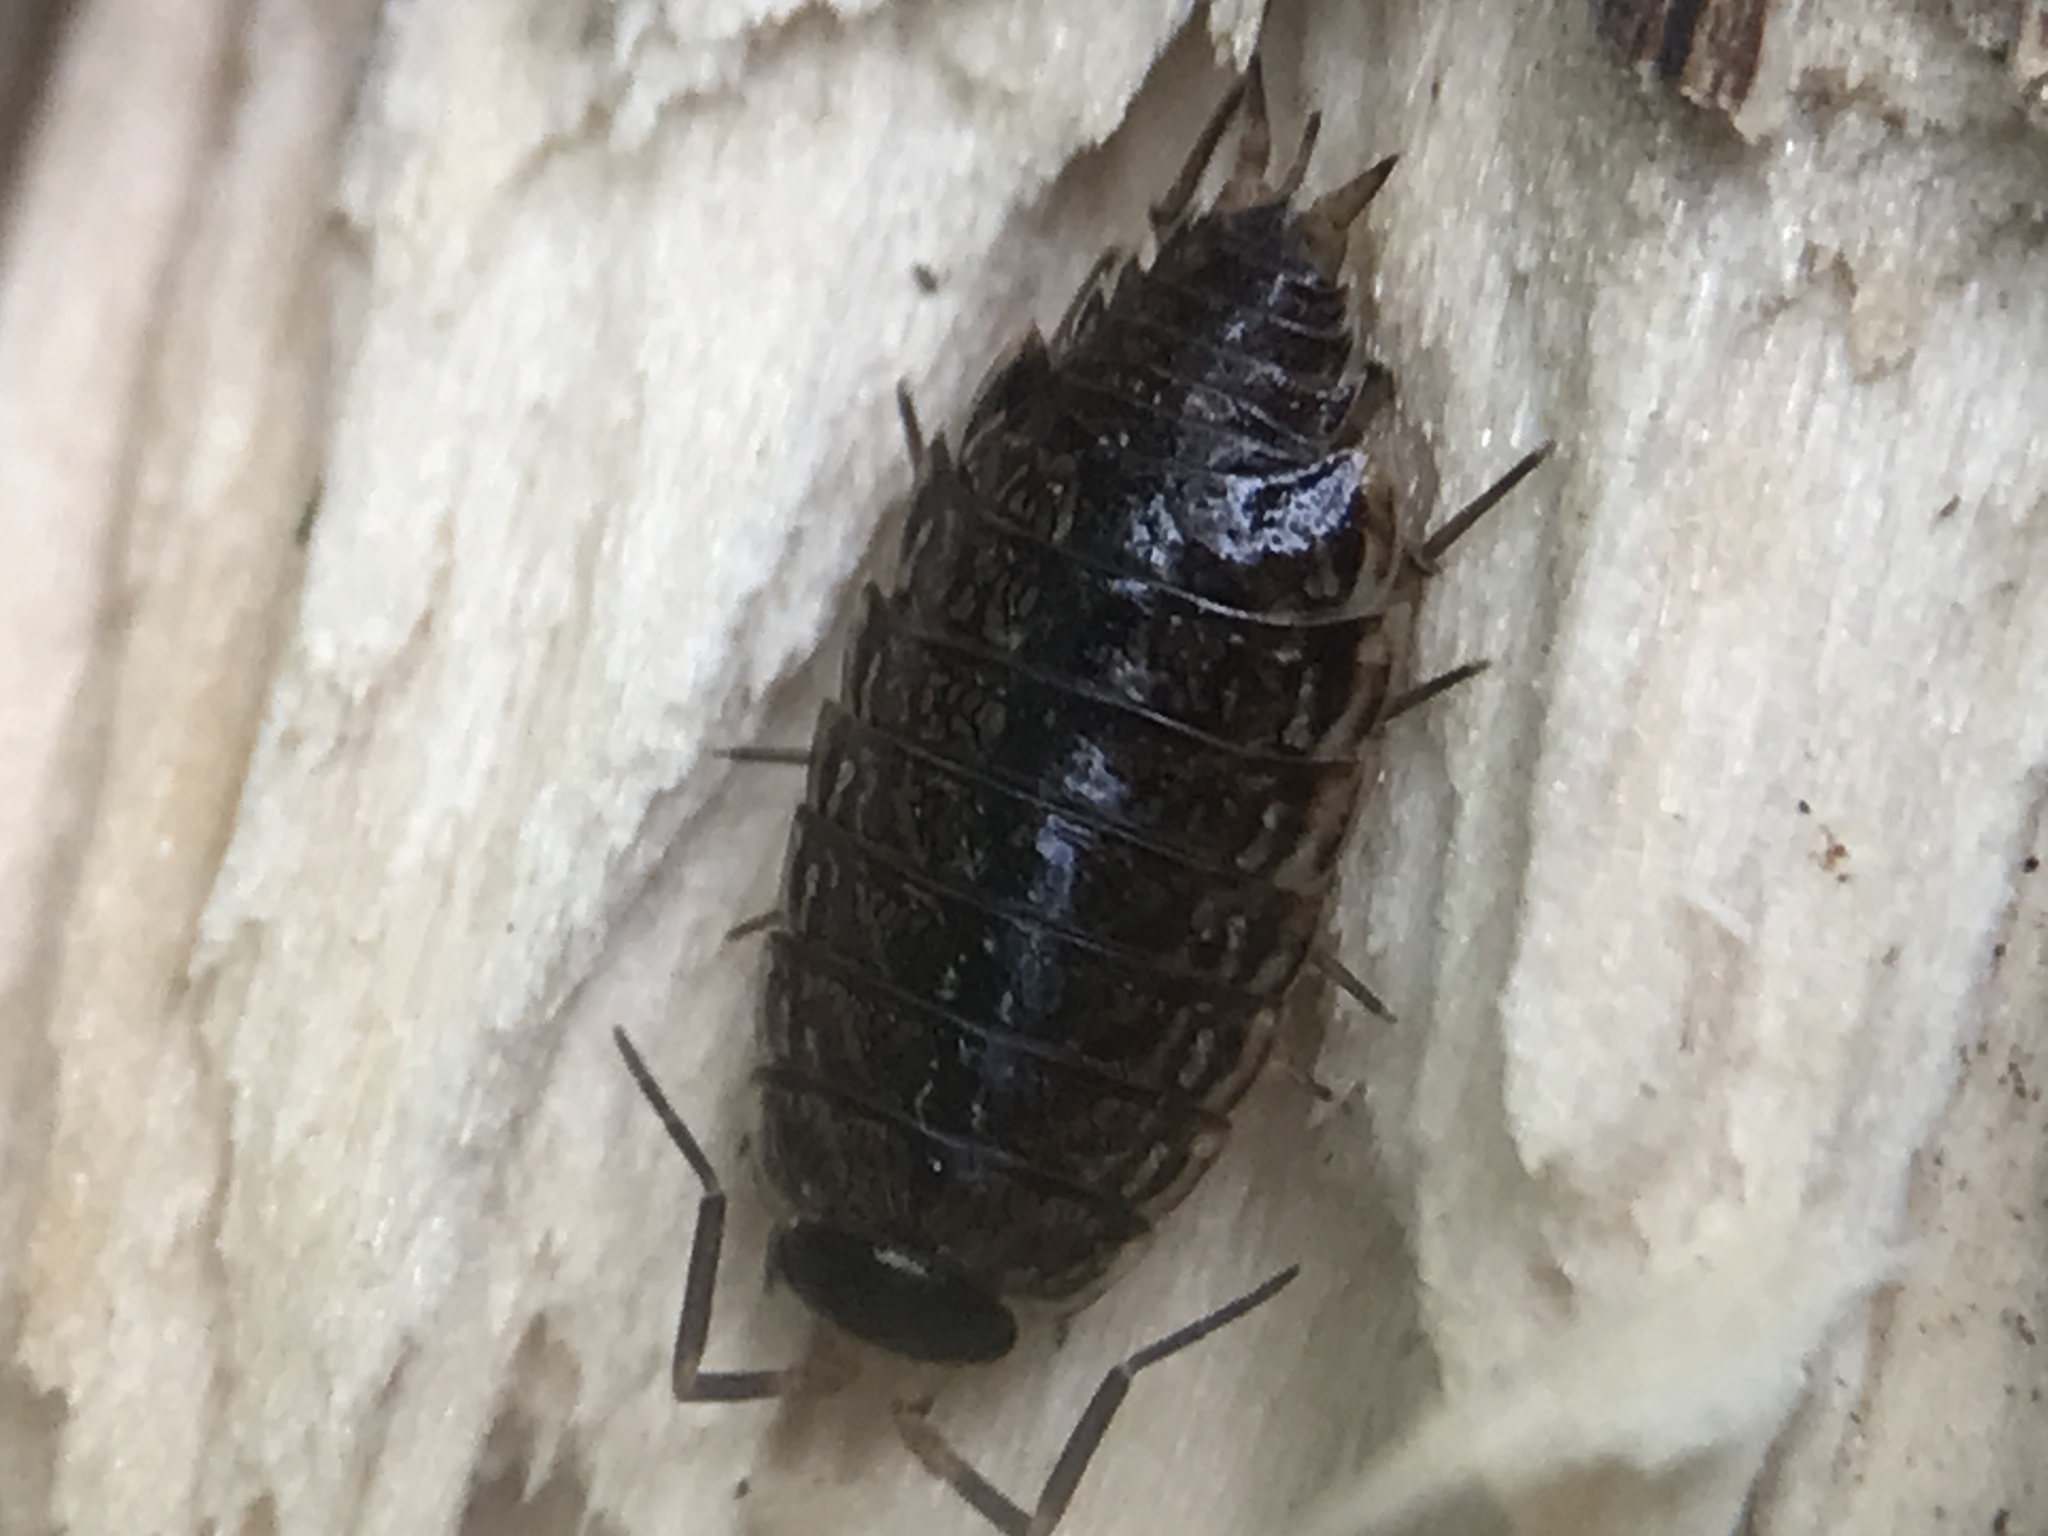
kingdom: Animalia
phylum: Arthropoda
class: Malacostraca
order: Isopoda
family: Philosciidae
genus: Philoscia
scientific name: Philoscia muscorum
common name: Common striped woodlouse
